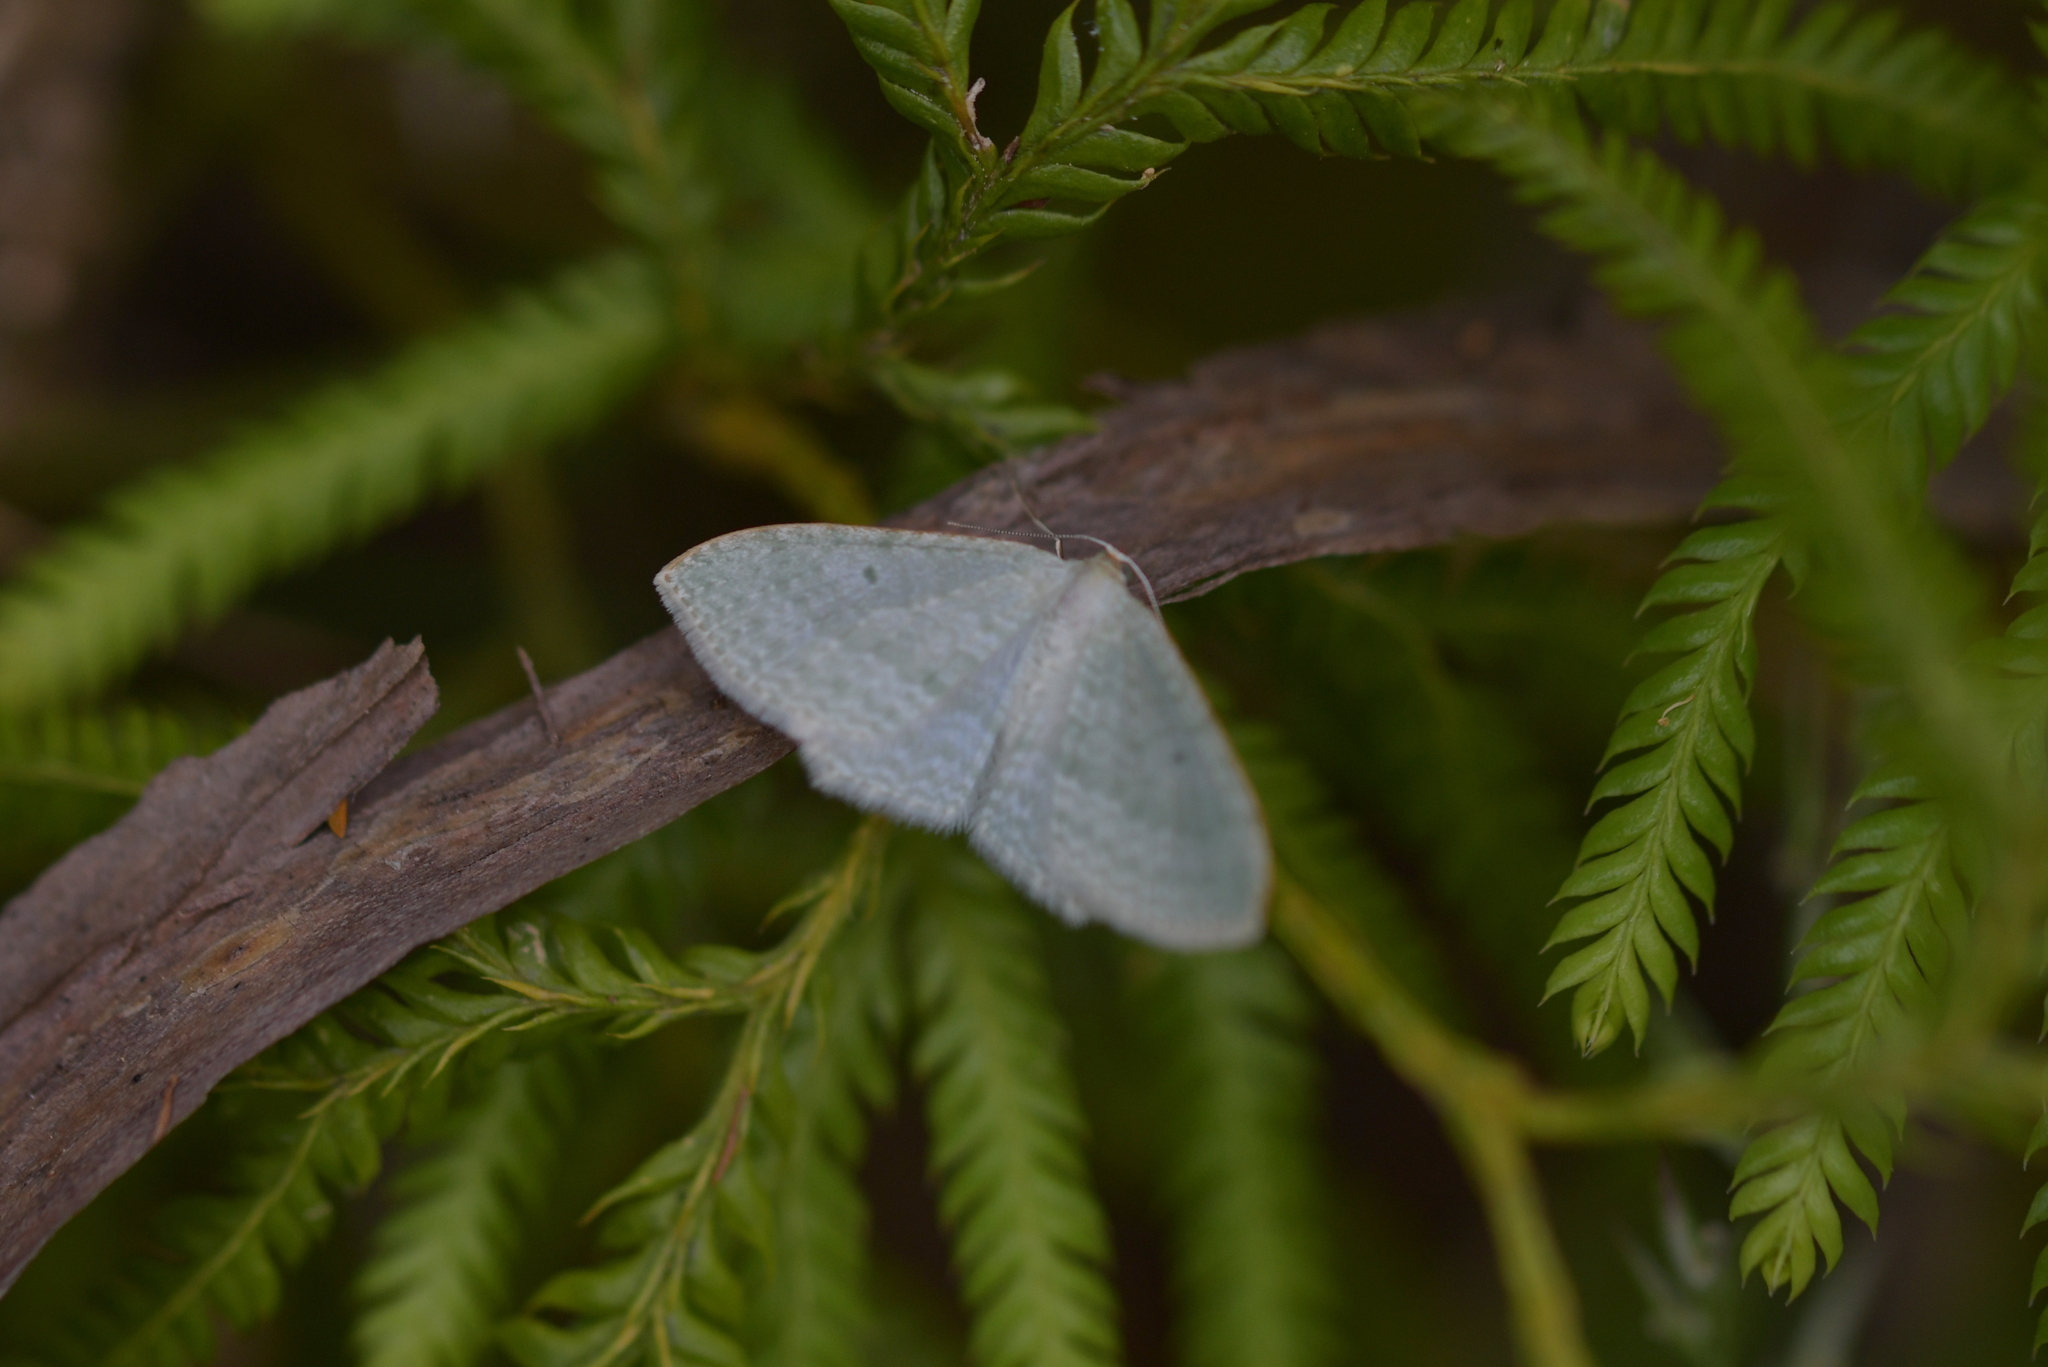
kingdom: Animalia
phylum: Arthropoda
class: Insecta
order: Lepidoptera
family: Geometridae
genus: Poecilasthena
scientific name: Poecilasthena pulchraria
